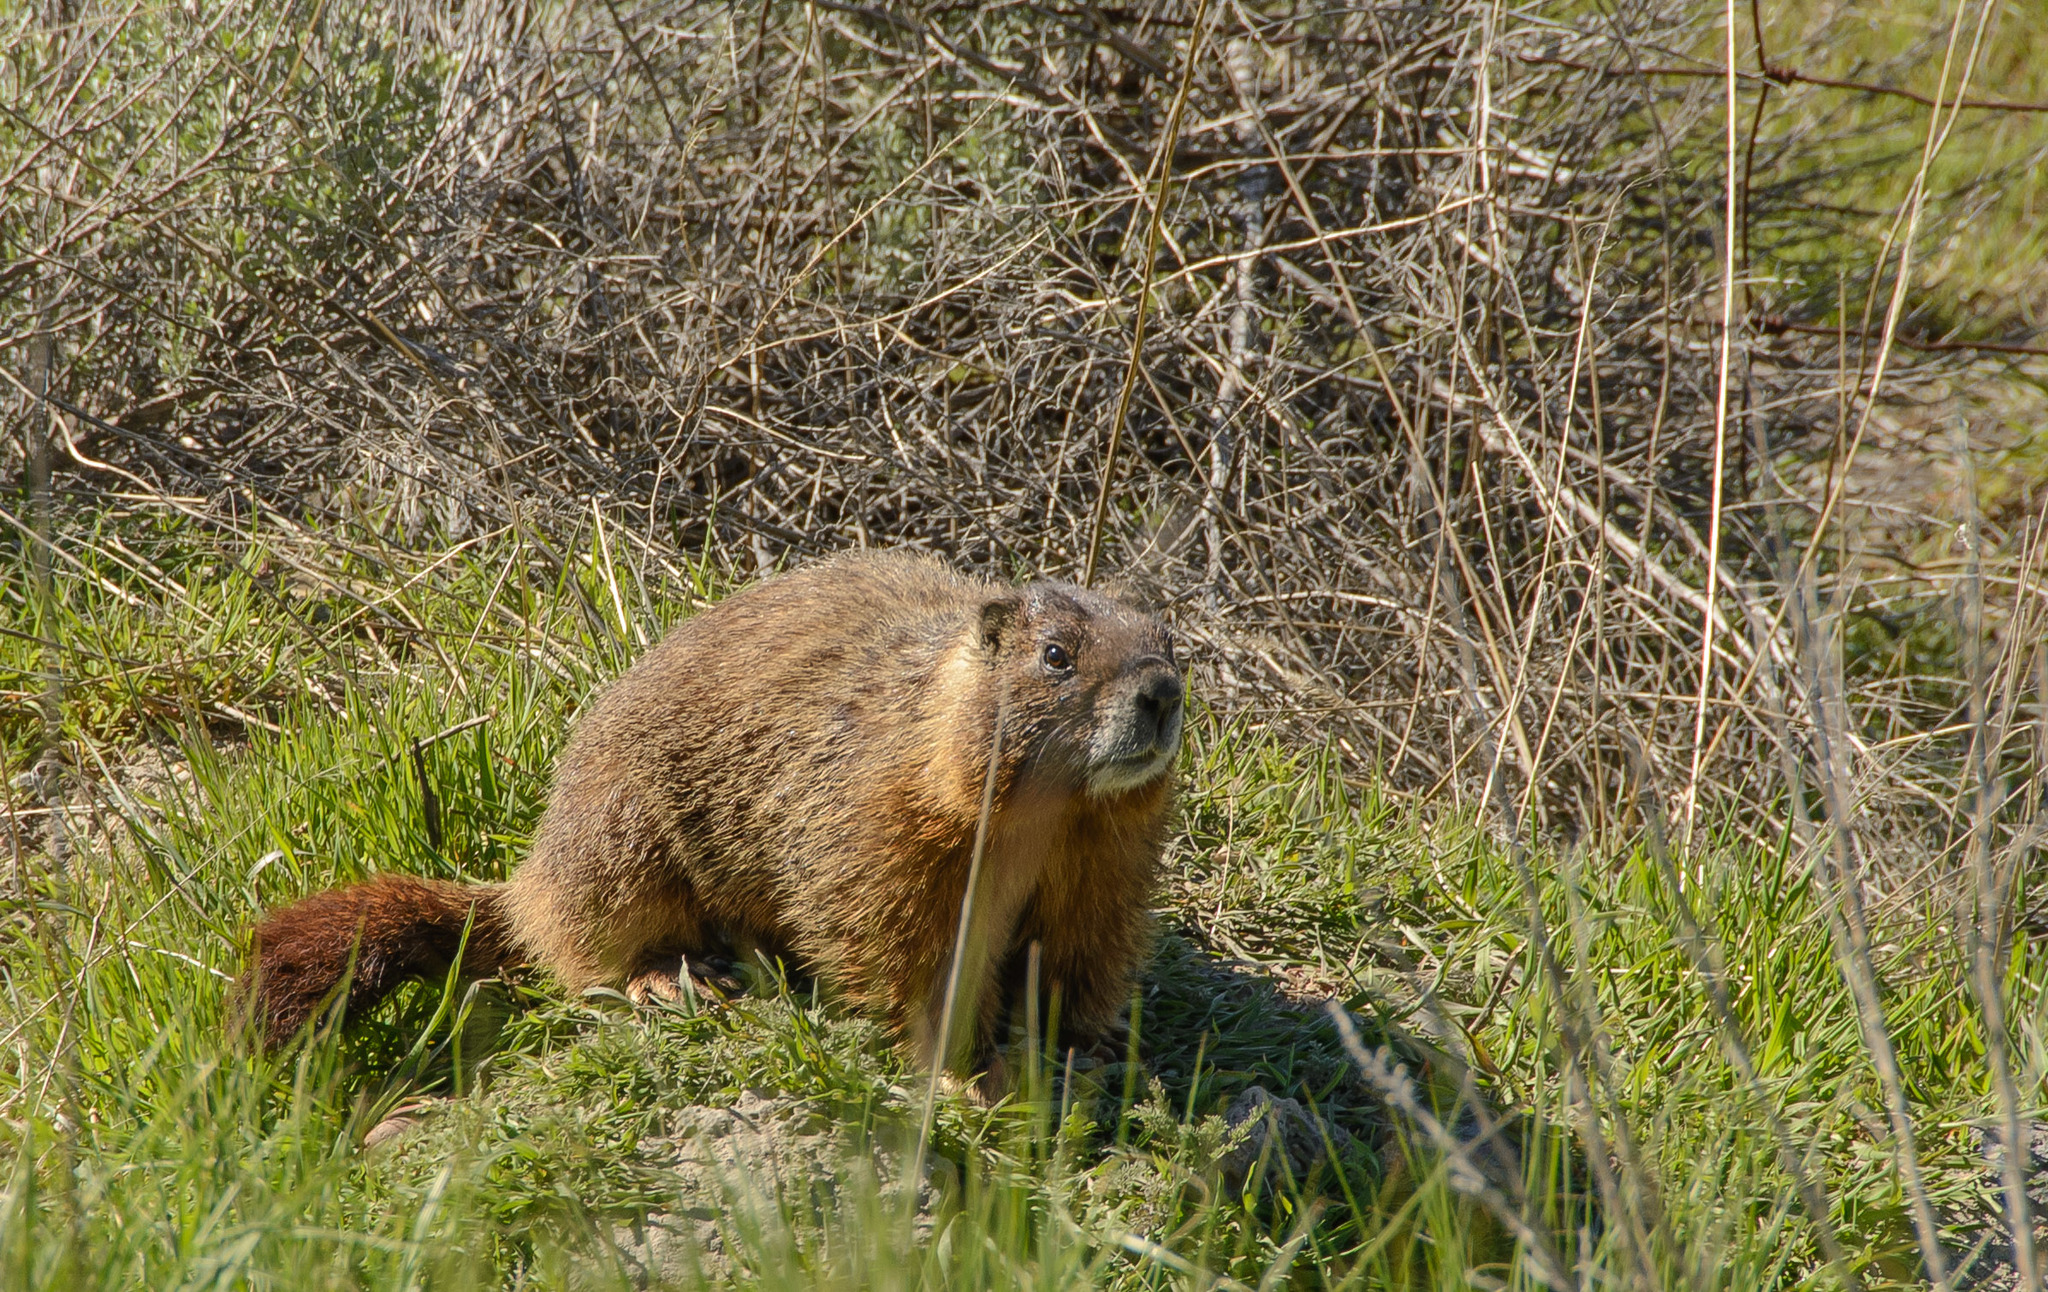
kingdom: Animalia
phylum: Chordata
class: Mammalia
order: Rodentia
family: Sciuridae
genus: Marmota
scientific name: Marmota flaviventris
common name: Yellow-bellied marmot
